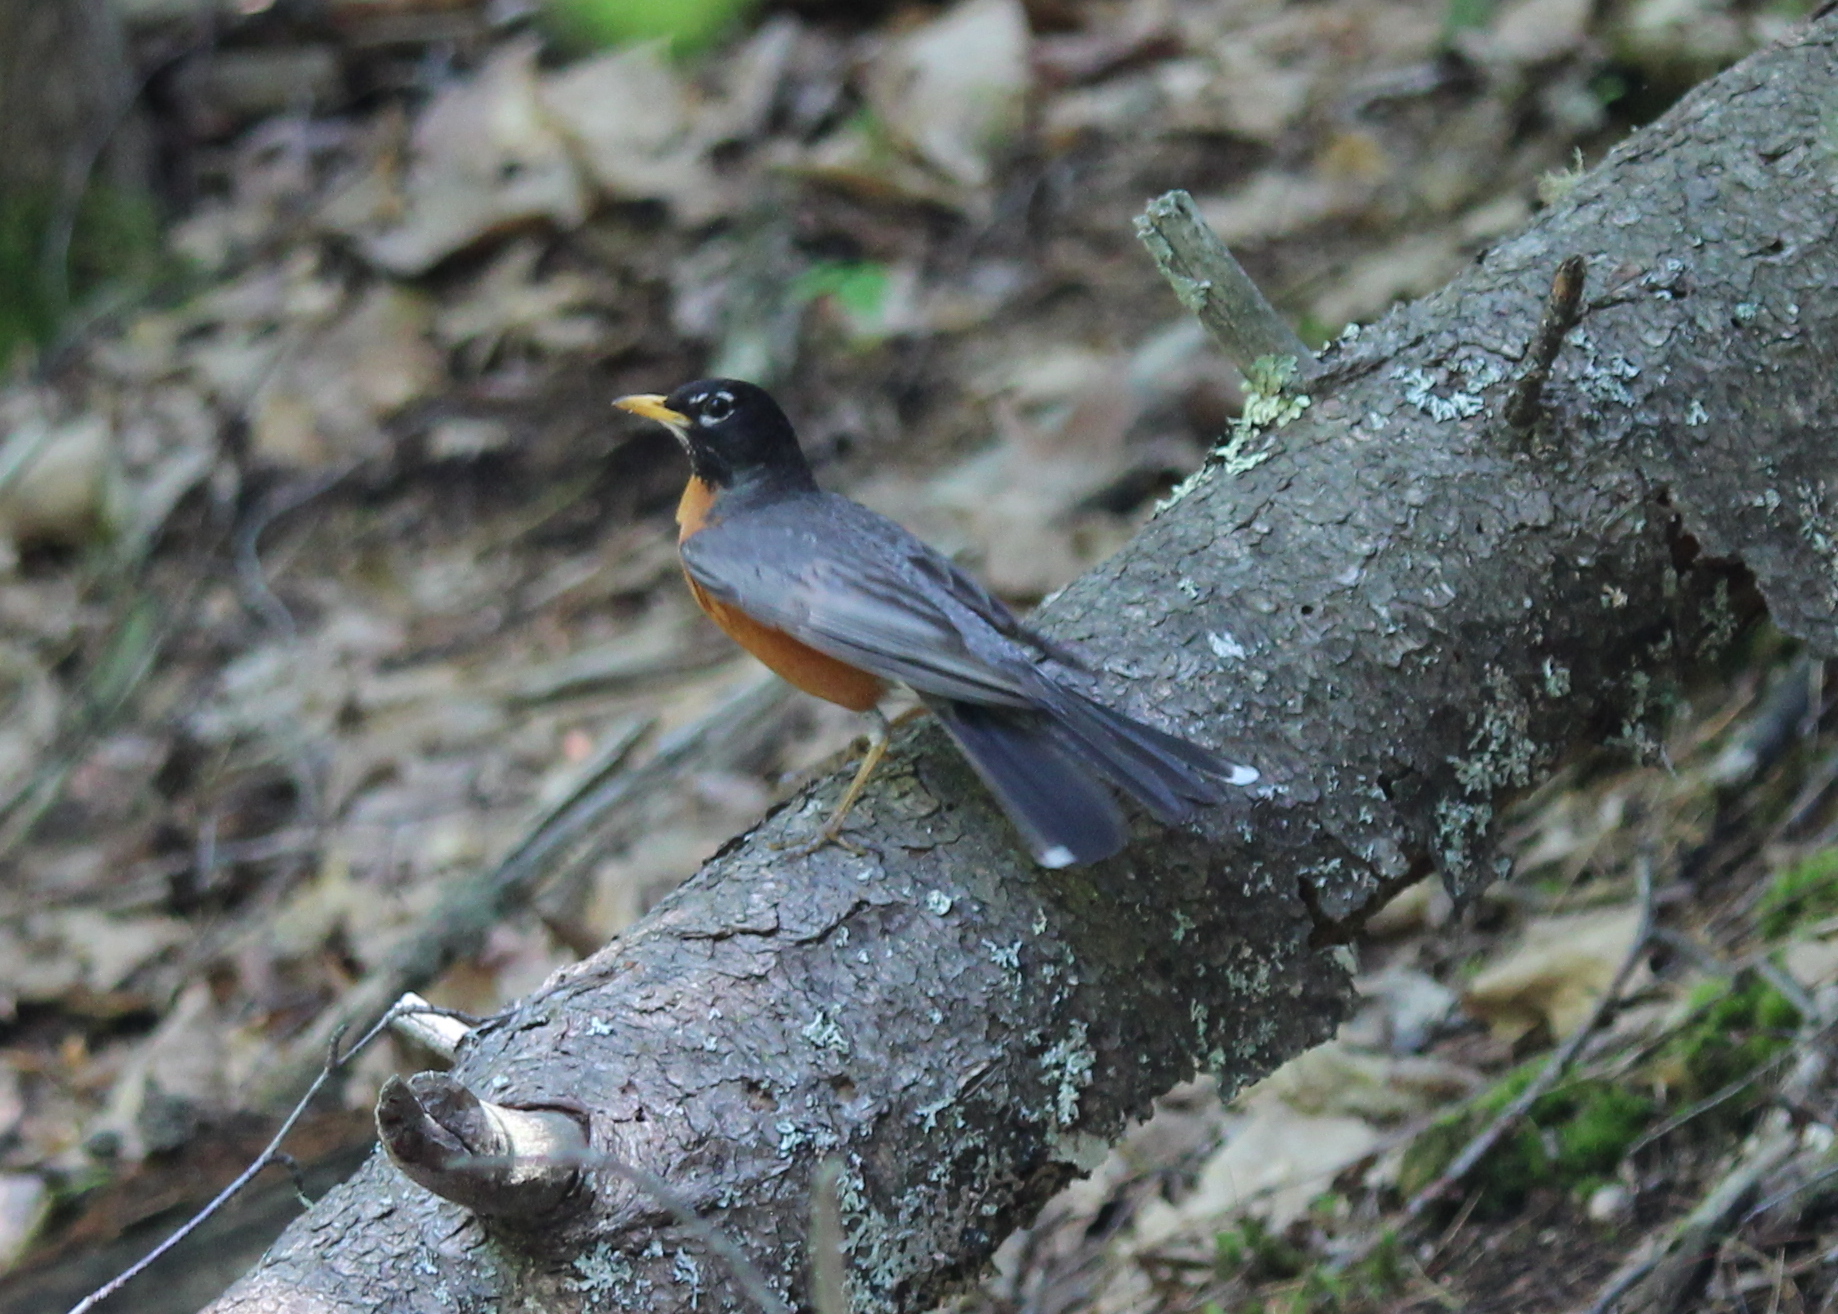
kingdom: Animalia
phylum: Chordata
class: Aves
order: Passeriformes
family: Turdidae
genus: Turdus
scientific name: Turdus migratorius
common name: American robin
